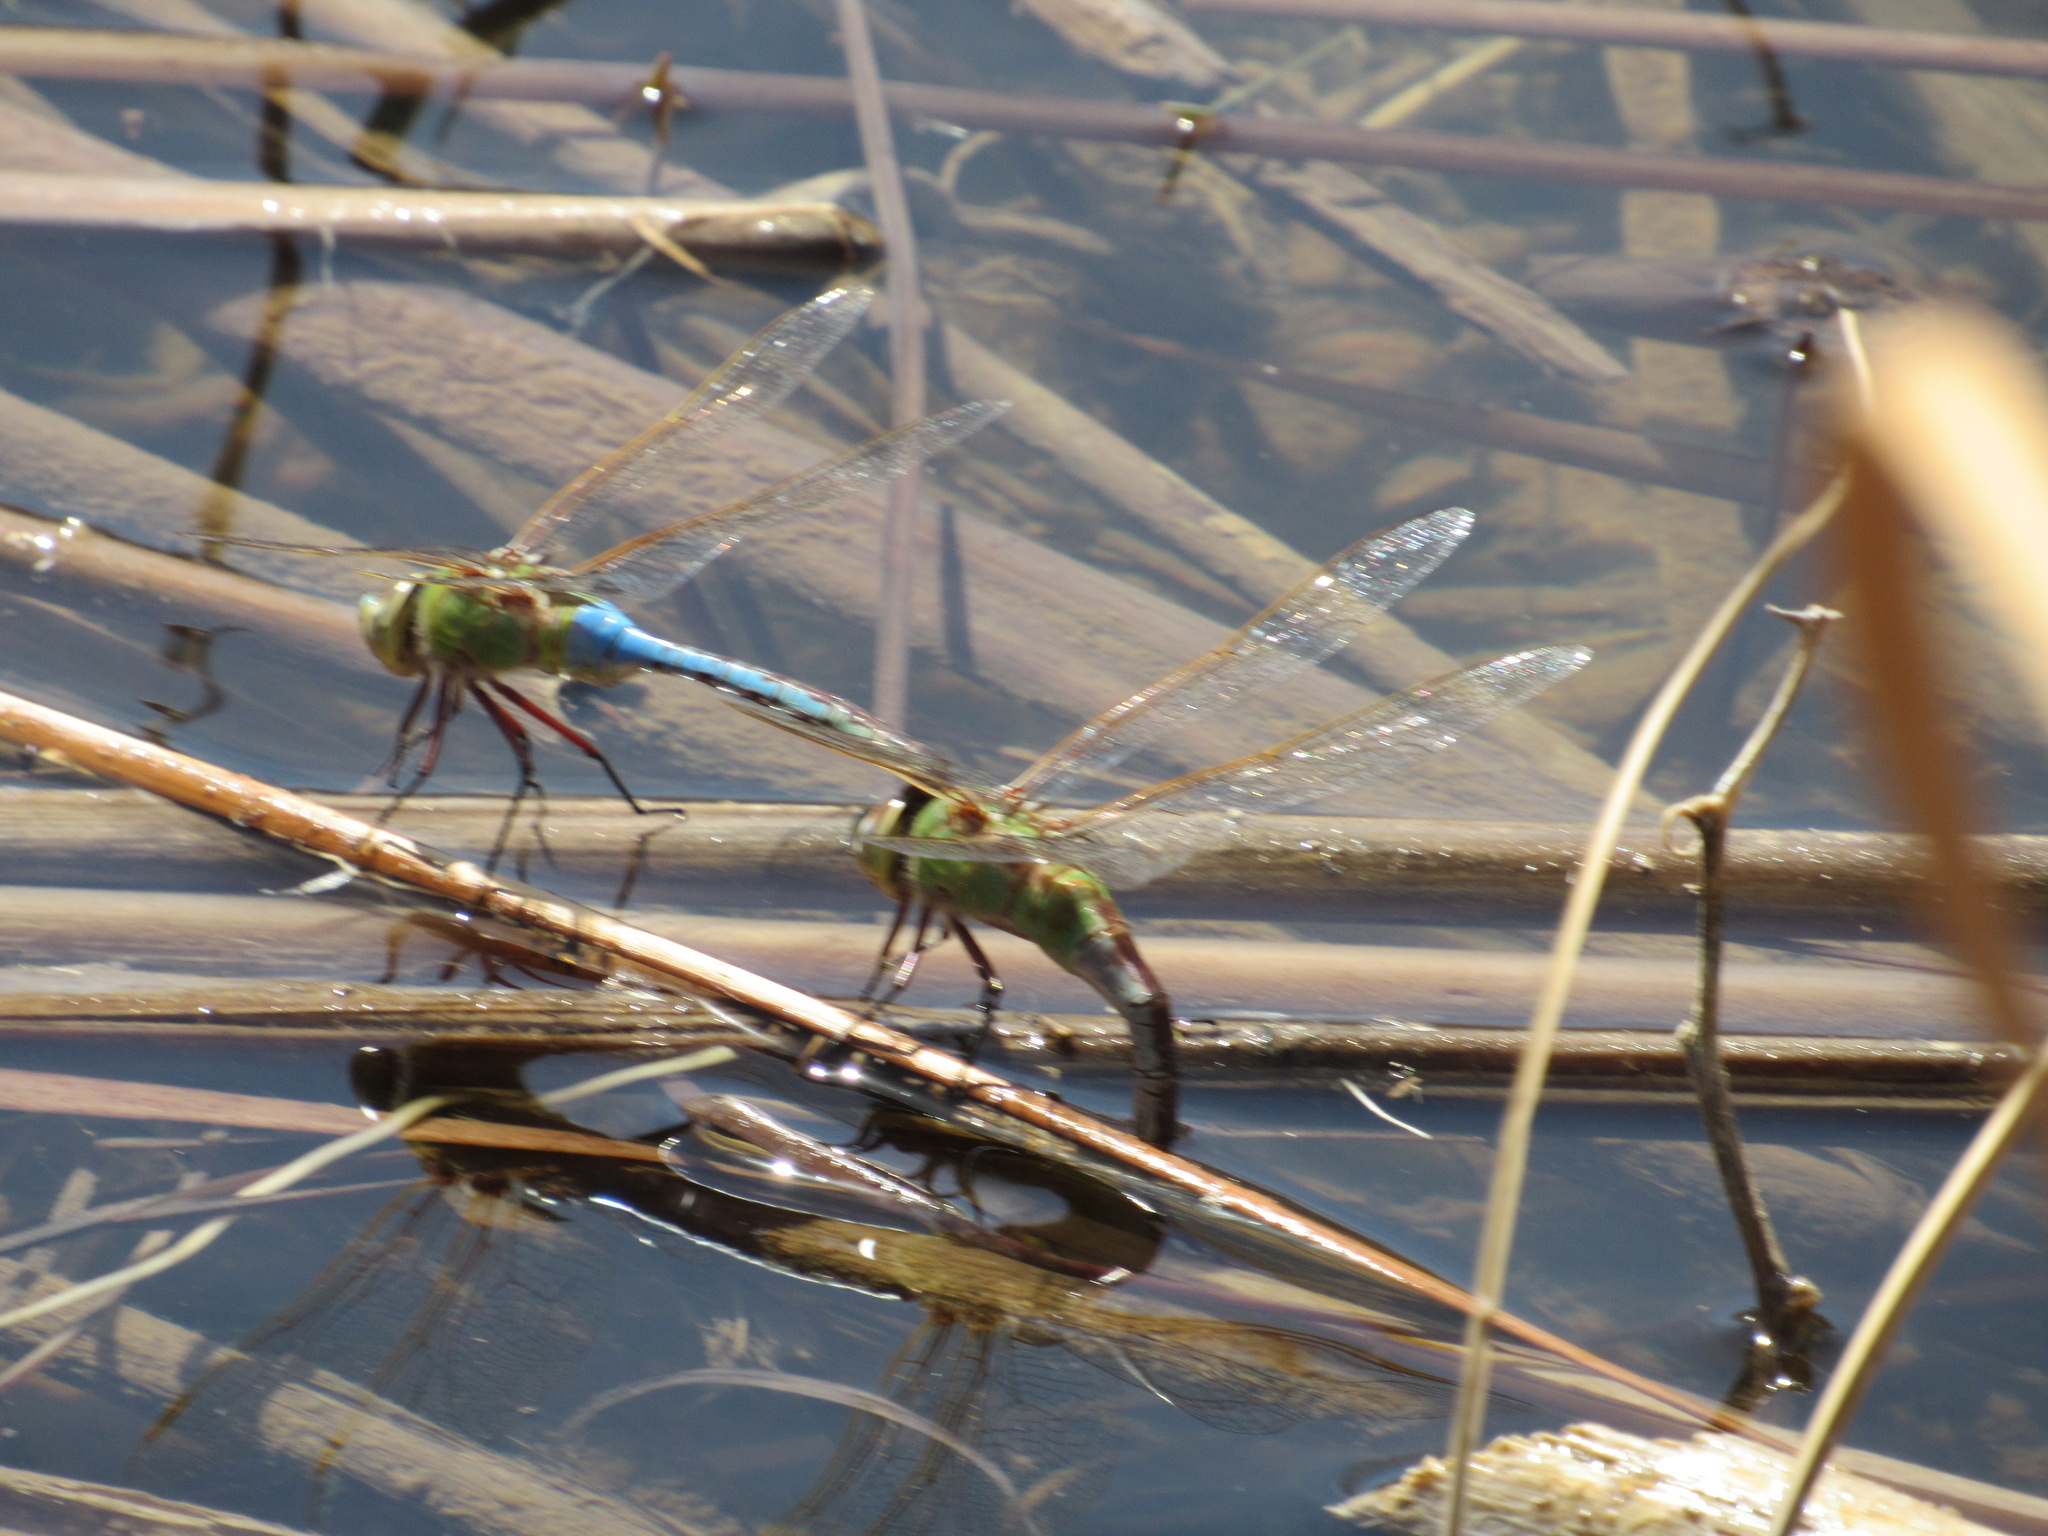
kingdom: Animalia
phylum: Arthropoda
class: Insecta
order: Odonata
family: Aeshnidae
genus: Anax
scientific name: Anax junius
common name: Common green darner
